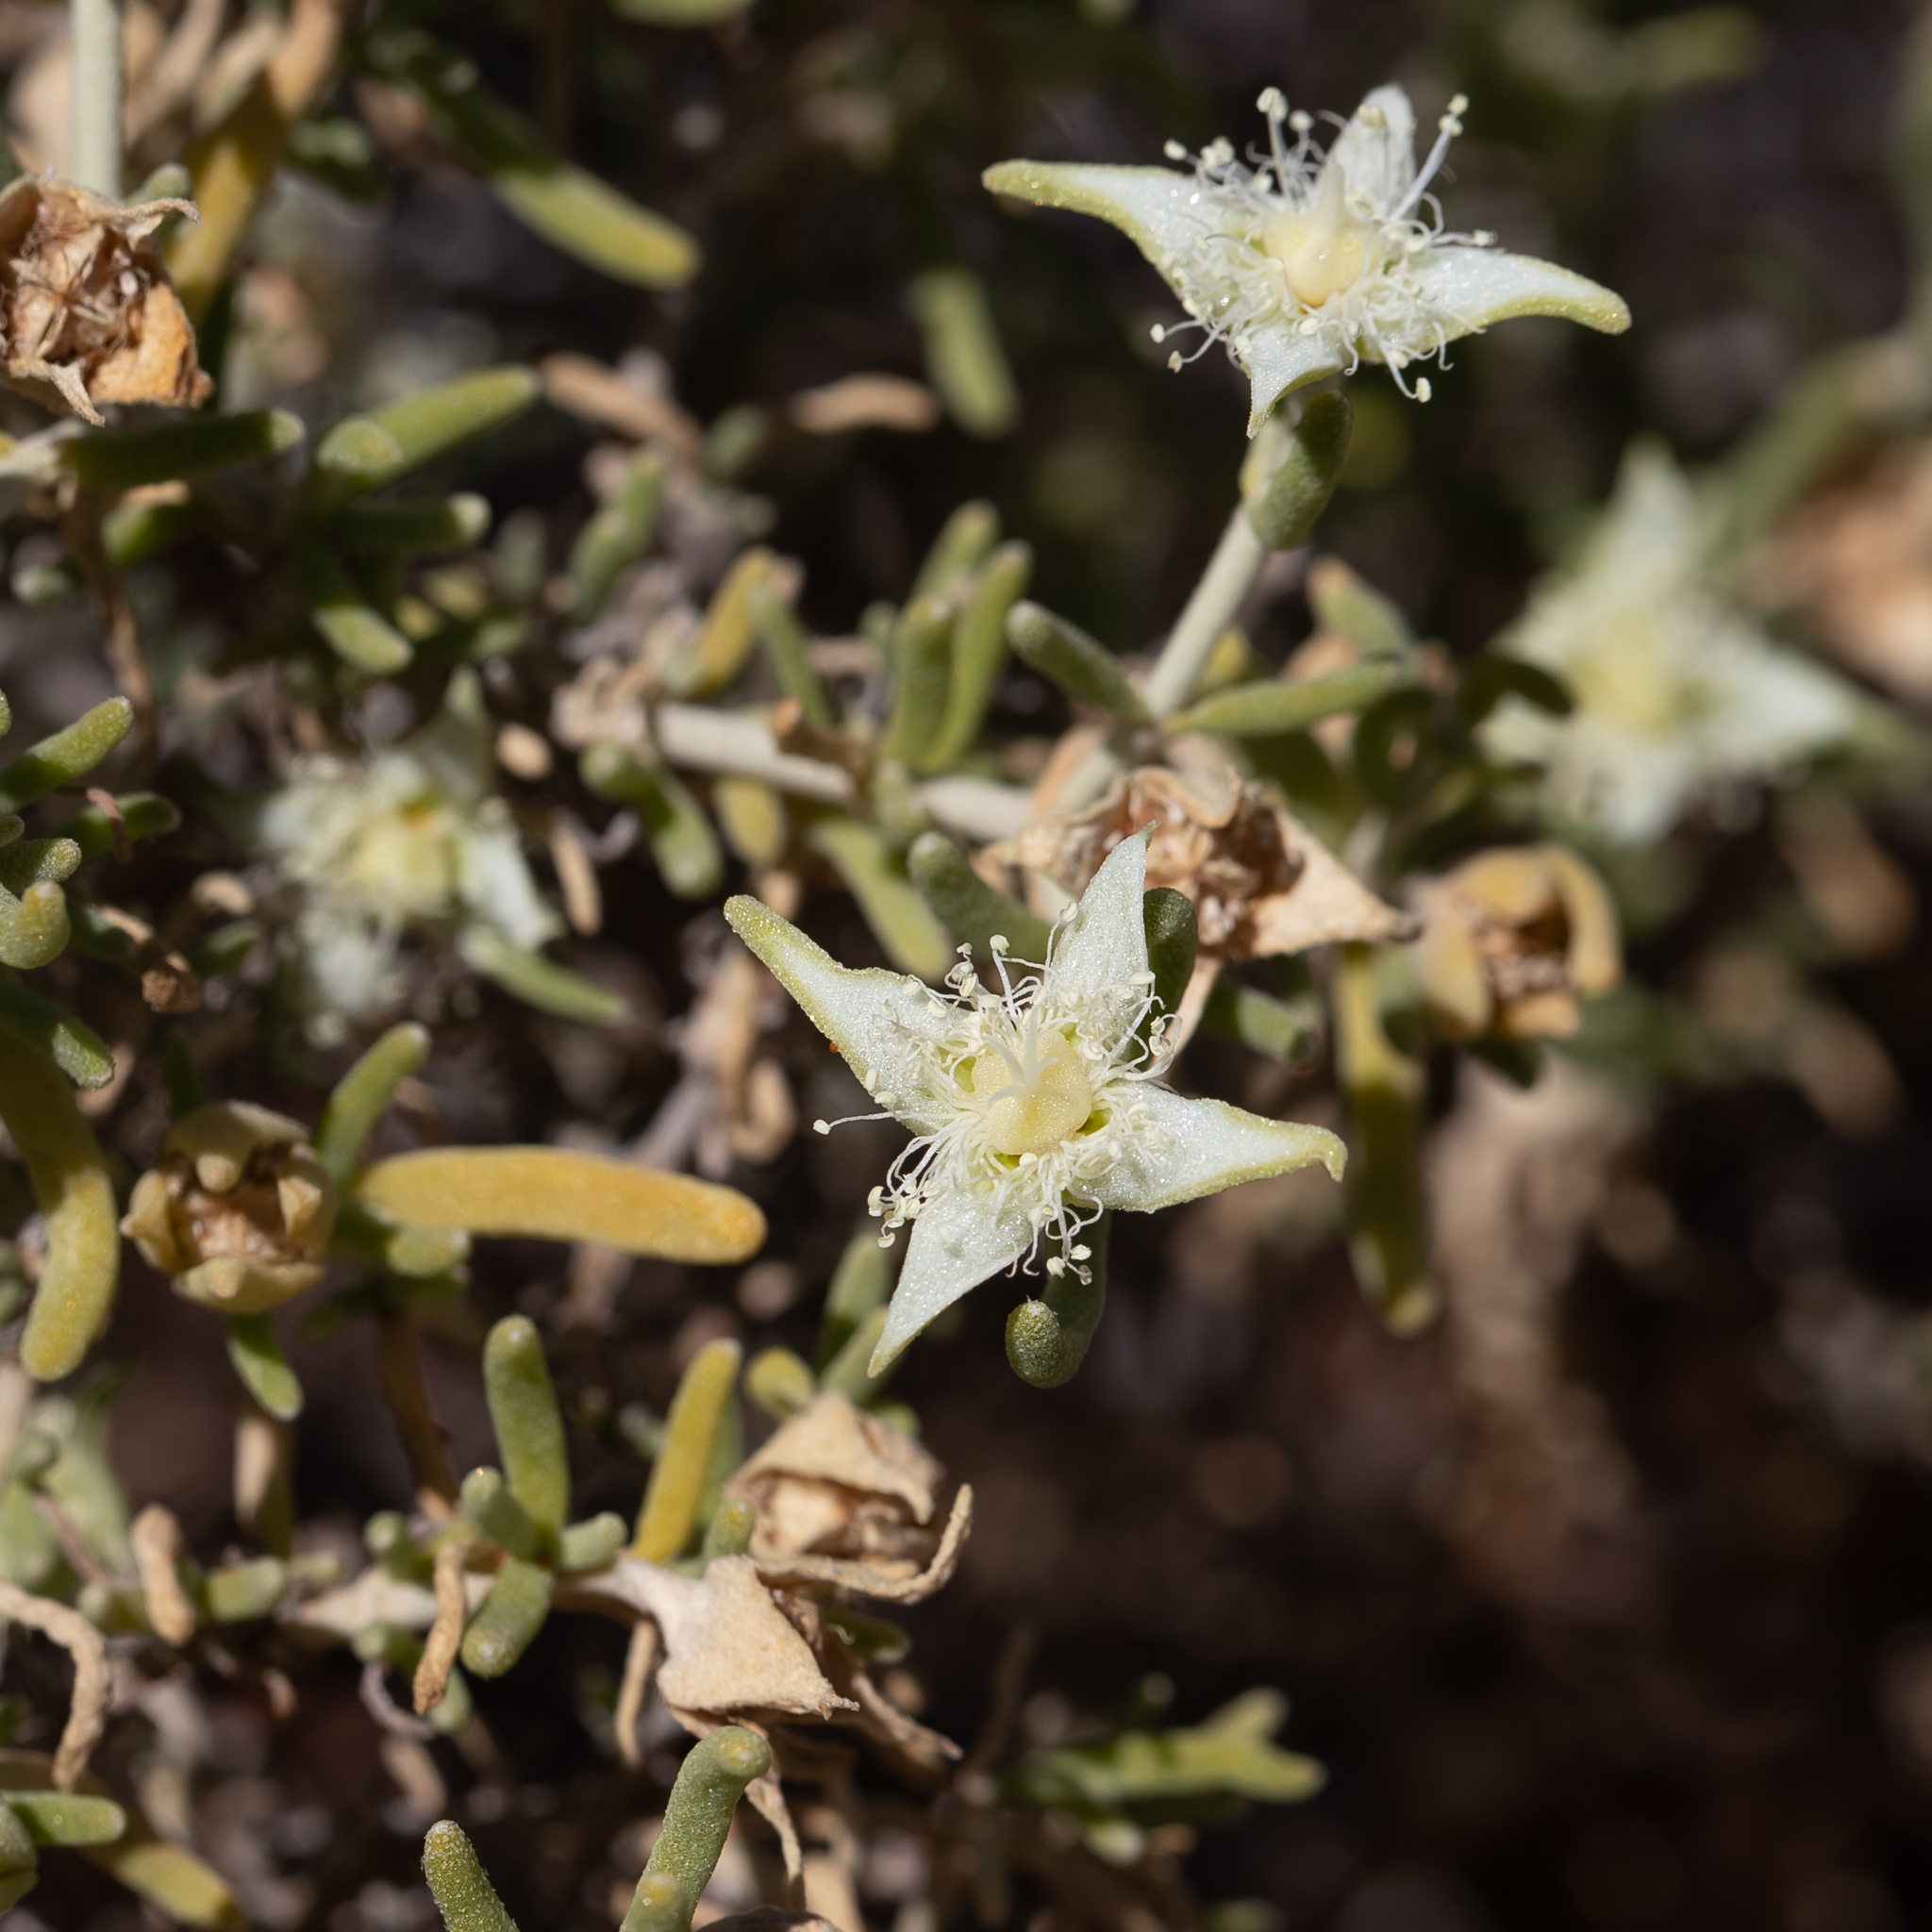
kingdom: Plantae
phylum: Tracheophyta
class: Magnoliopsida
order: Caryophyllales
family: Aizoaceae
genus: Gunniopsis
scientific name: Gunniopsis quadrifida
